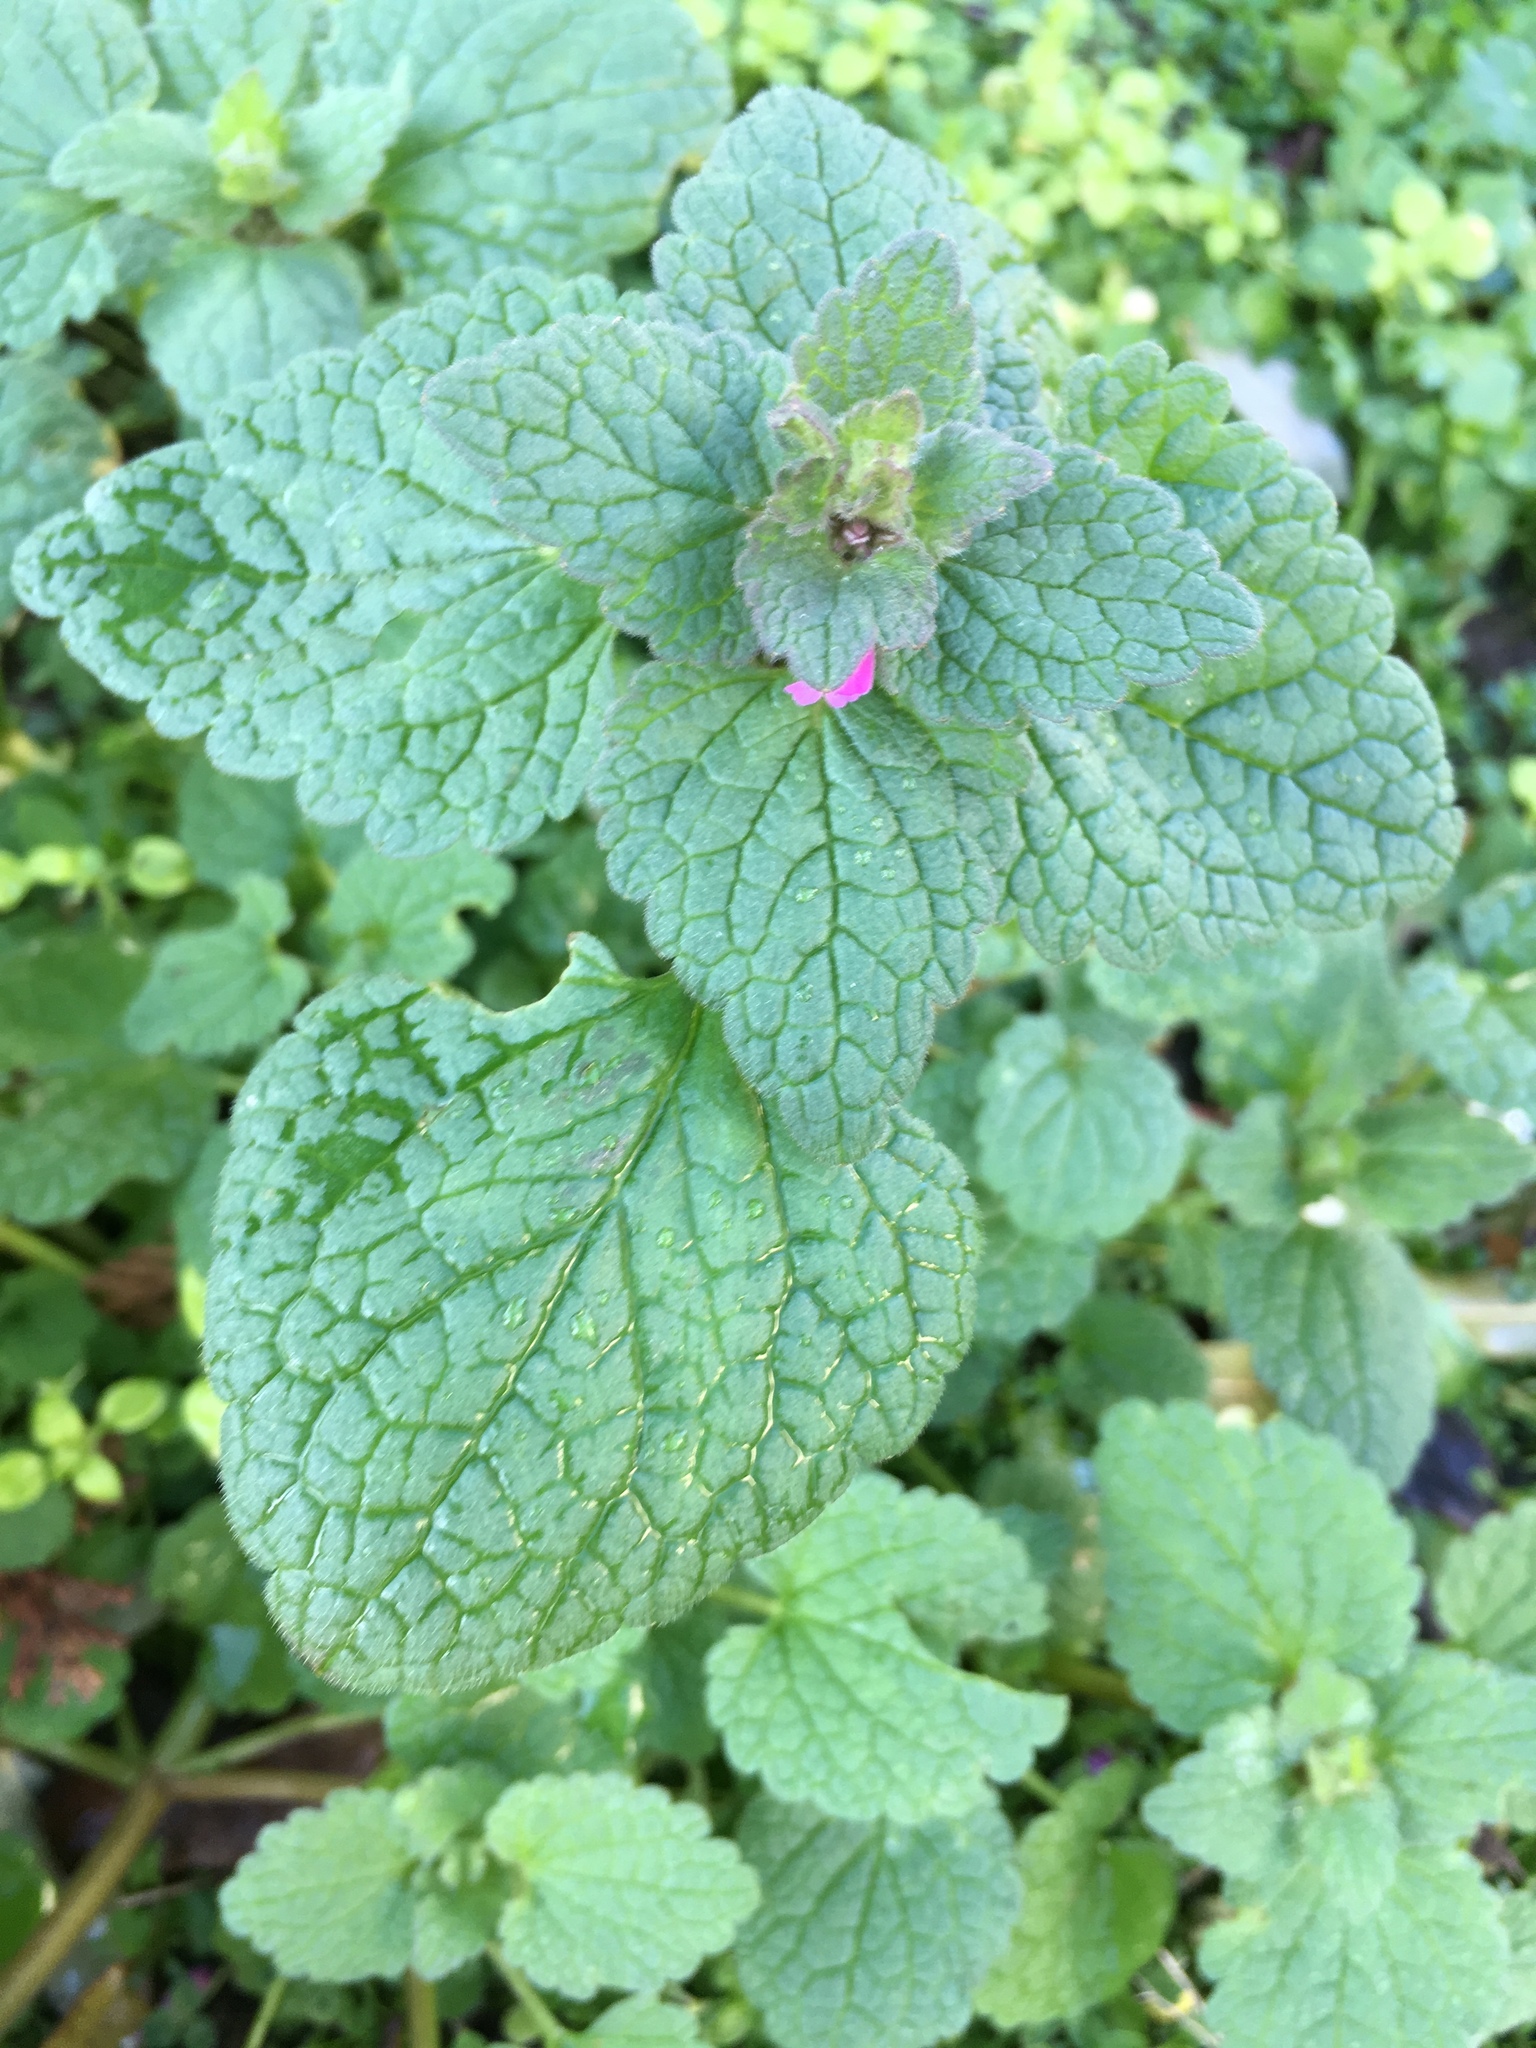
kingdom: Plantae
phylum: Tracheophyta
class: Magnoliopsida
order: Lamiales
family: Lamiaceae
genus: Lamium
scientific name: Lamium purpureum
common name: Red dead-nettle
